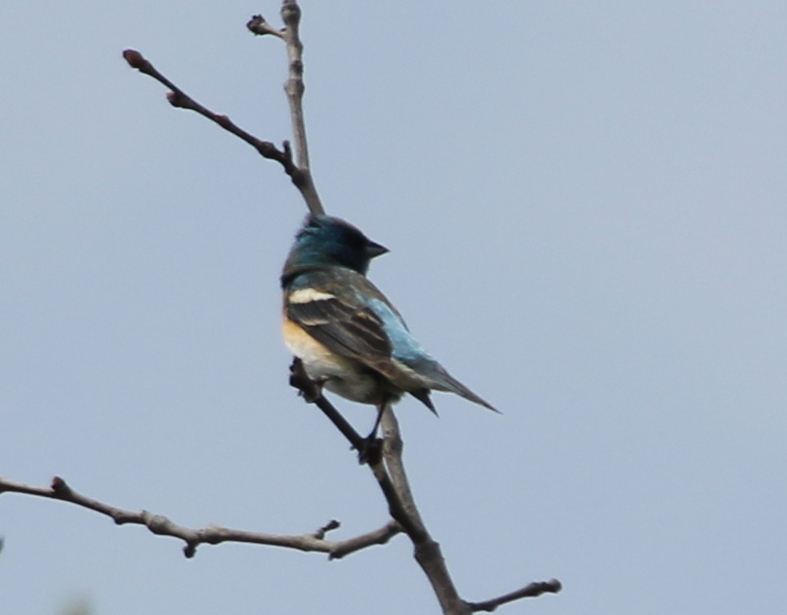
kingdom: Animalia
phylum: Chordata
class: Aves
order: Passeriformes
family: Cardinalidae
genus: Passerina
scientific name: Passerina amoena
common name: Lazuli bunting
